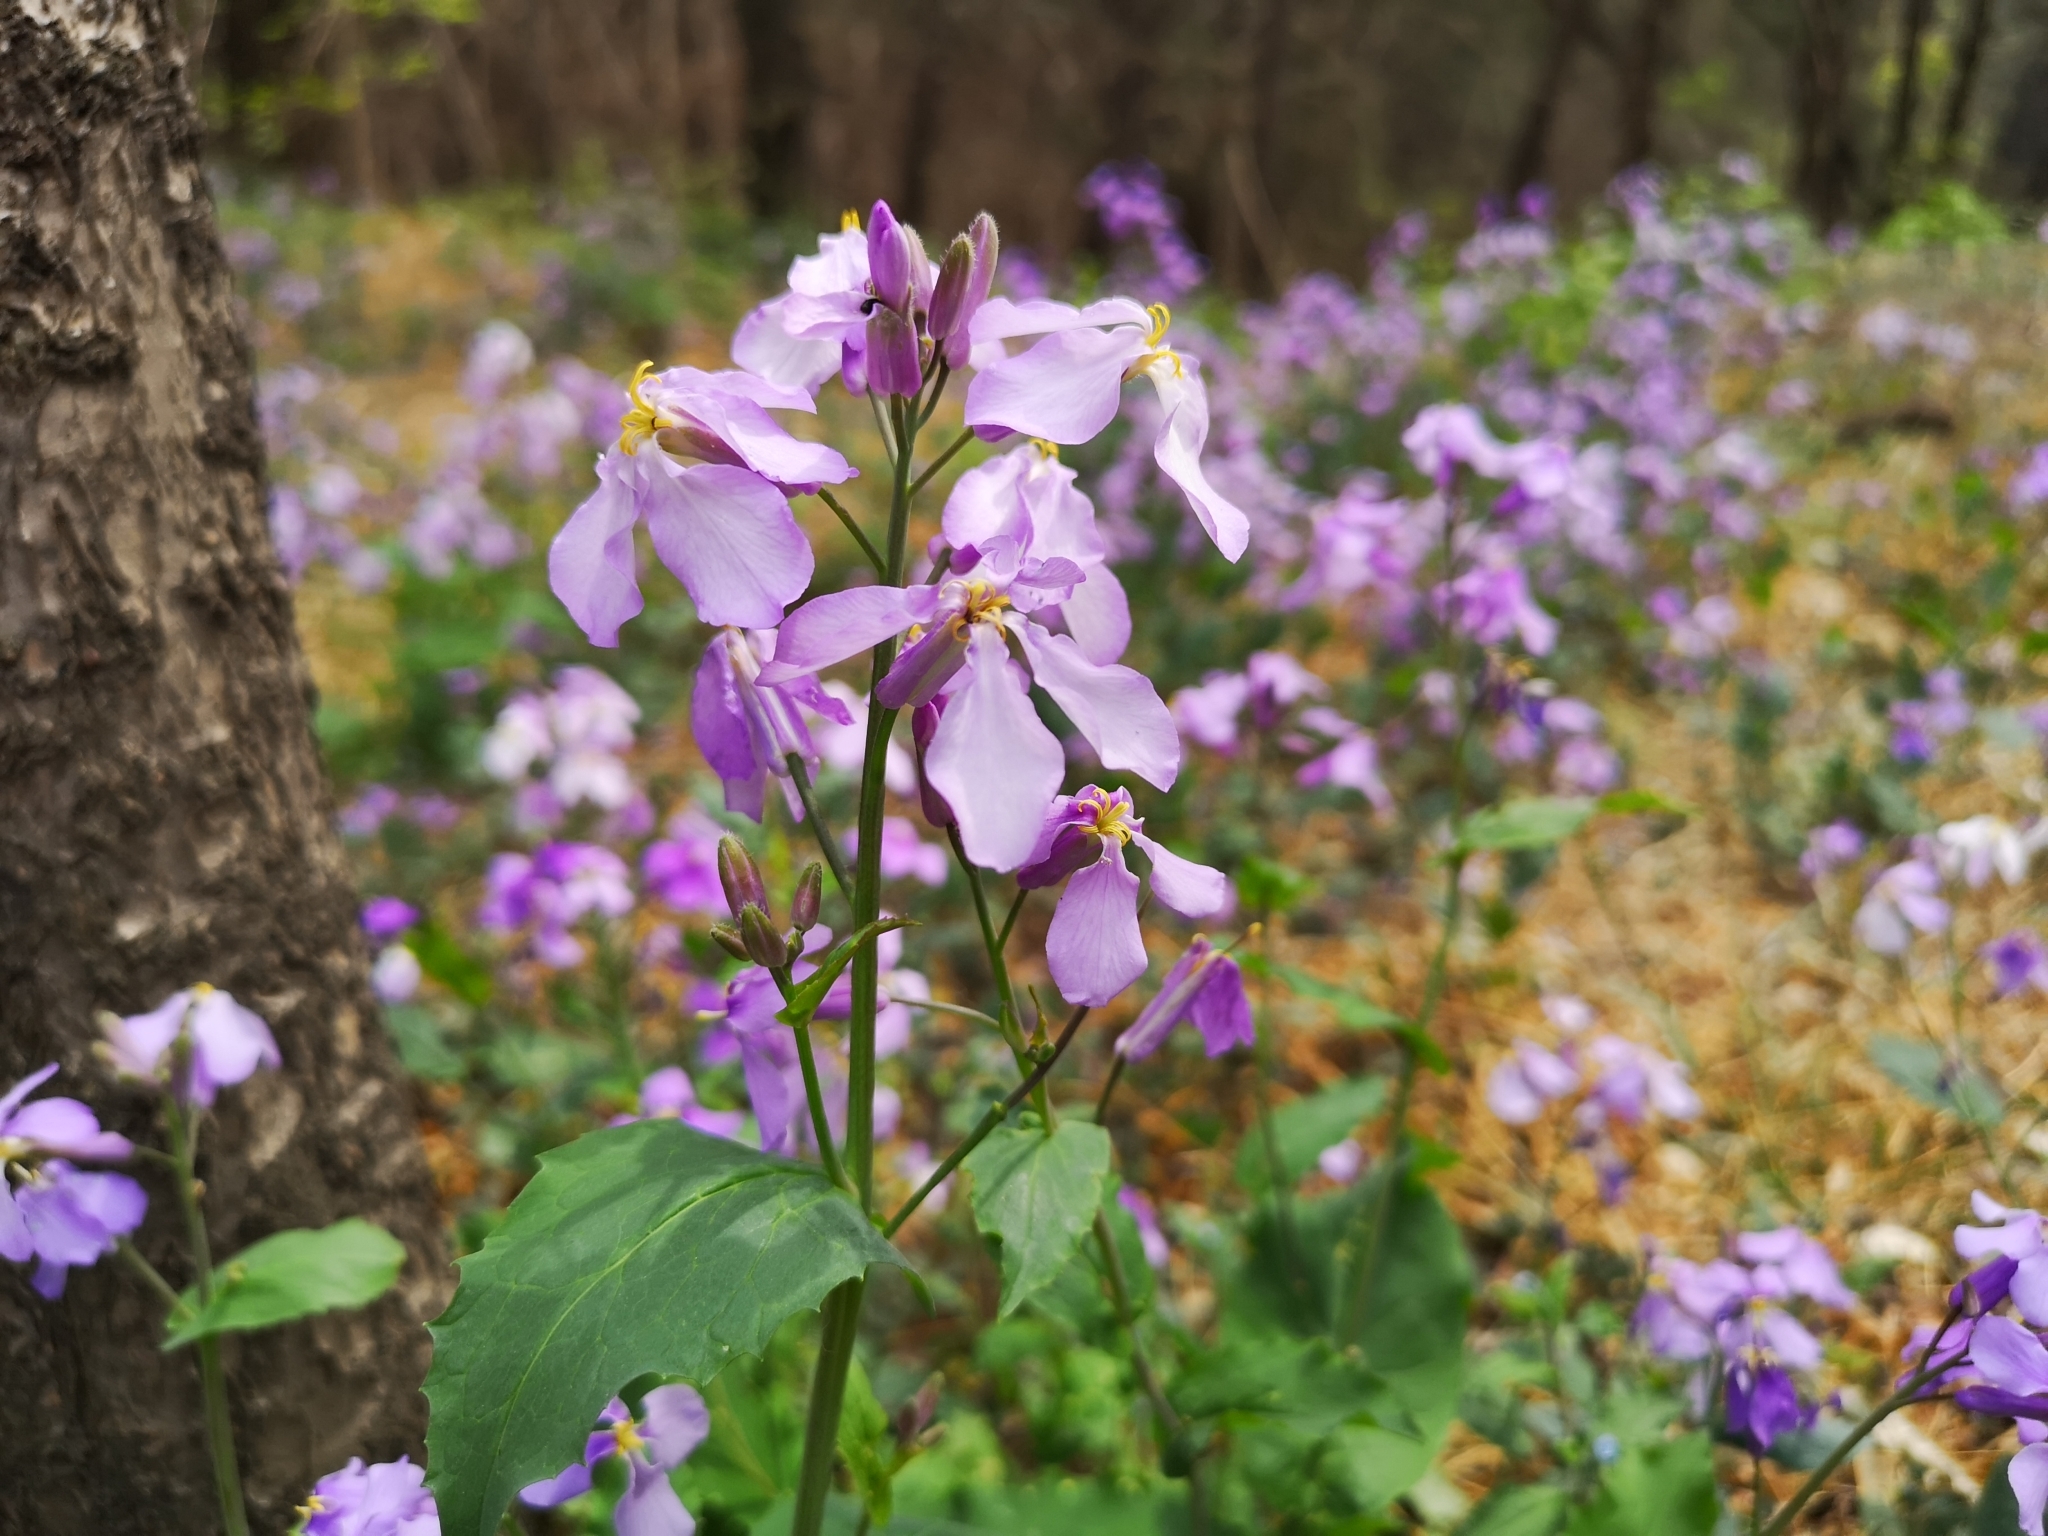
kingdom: Plantae
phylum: Tracheophyta
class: Magnoliopsida
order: Brassicales
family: Brassicaceae
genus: Orychophragmus
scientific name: Orychophragmus violaceus
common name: Mustard
